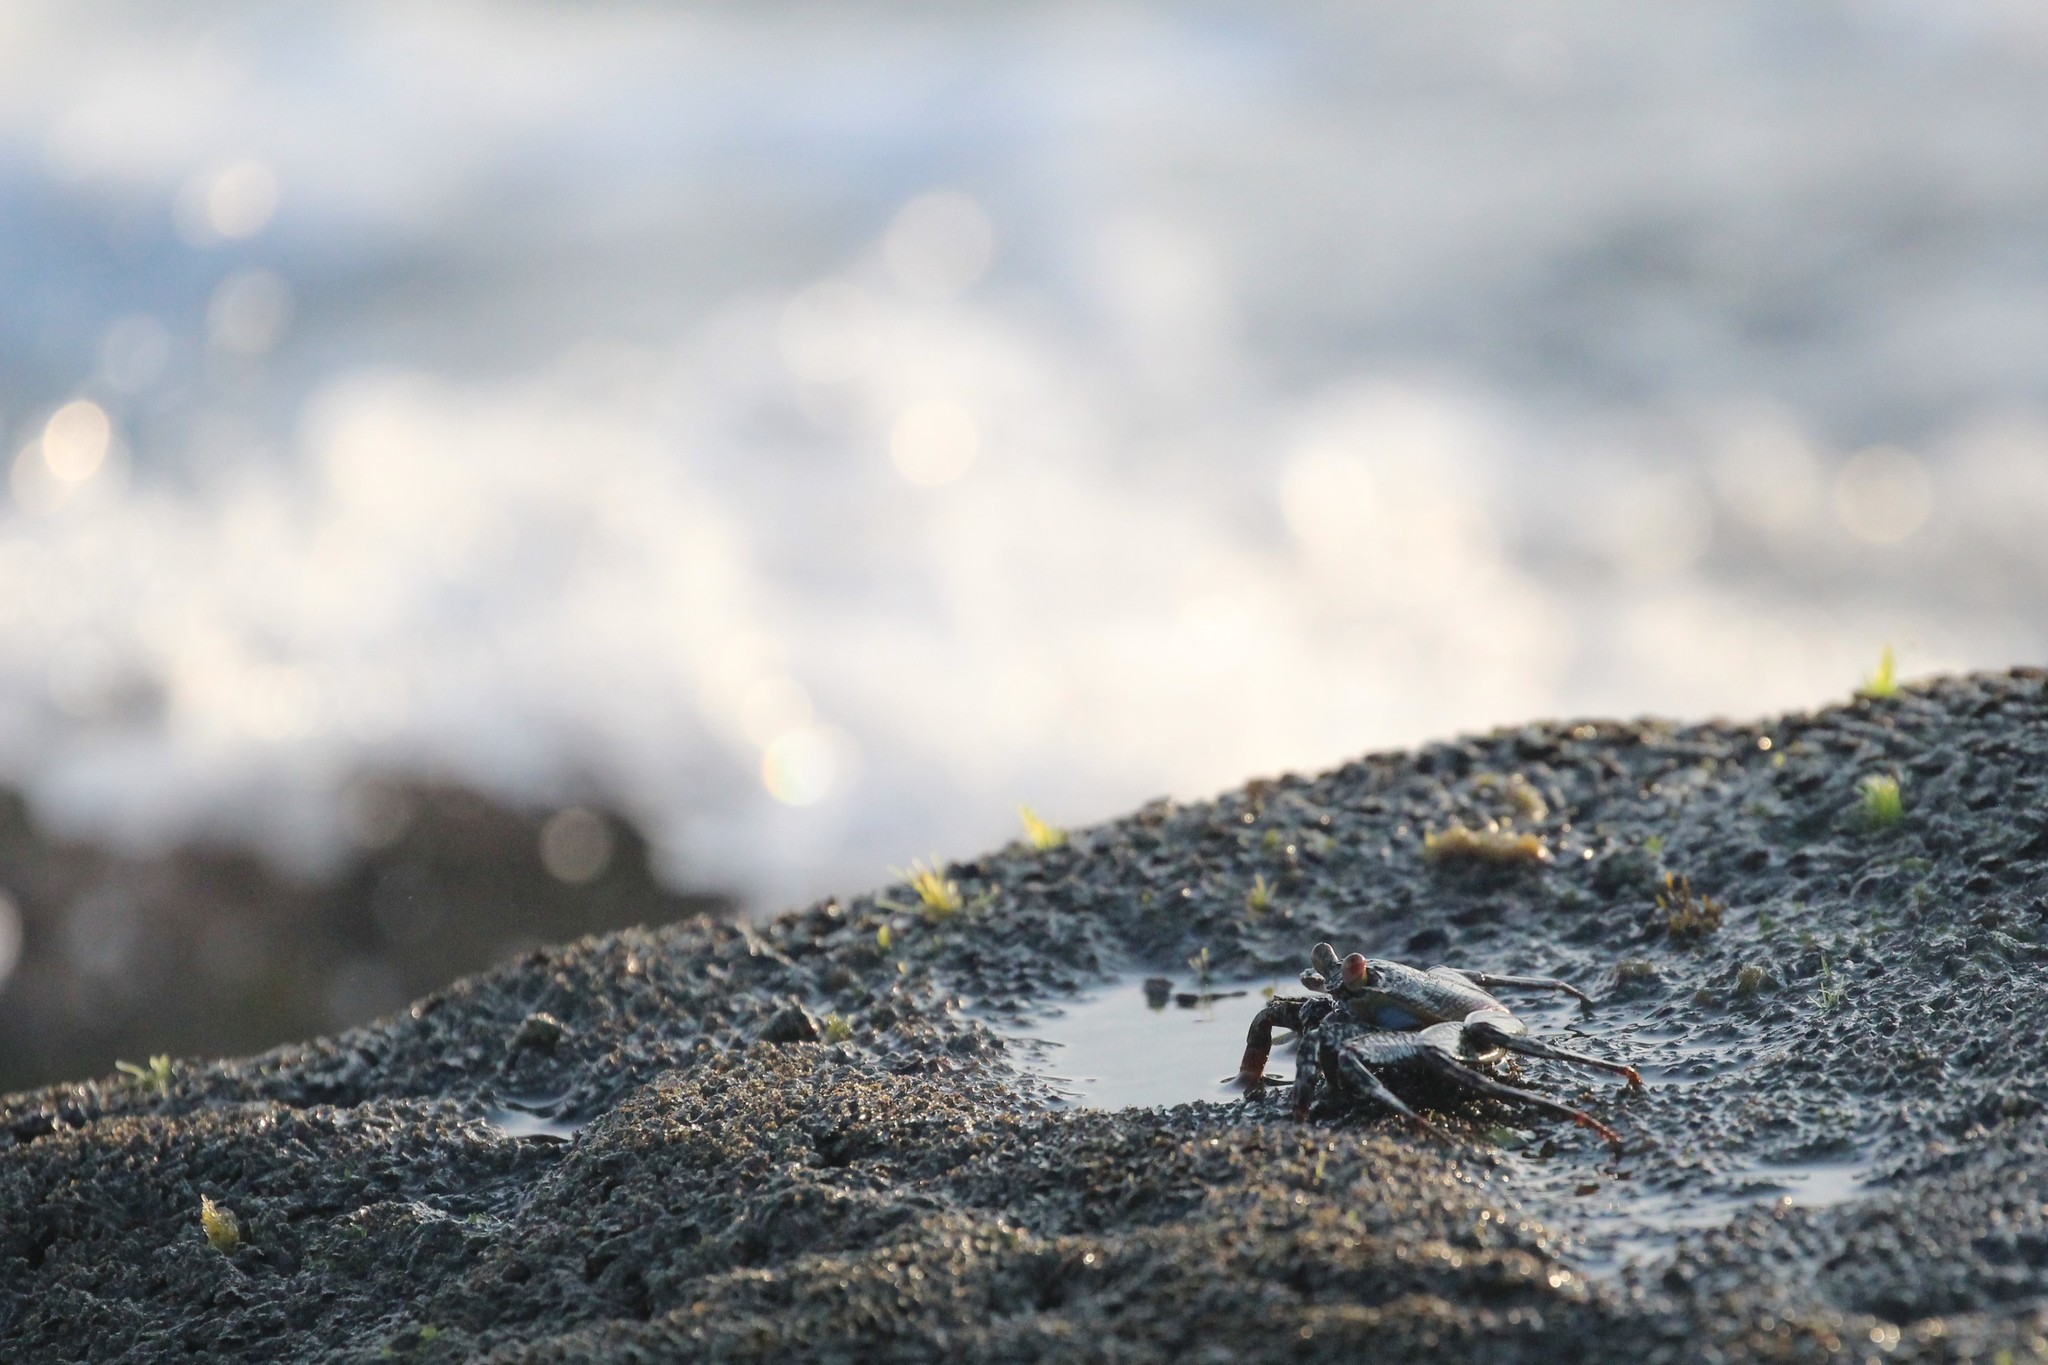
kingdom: Animalia
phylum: Arthropoda
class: Malacostraca
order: Decapoda
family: Grapsidae
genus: Grapsus
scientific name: Grapsus grapsus
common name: Sally lightfoot
